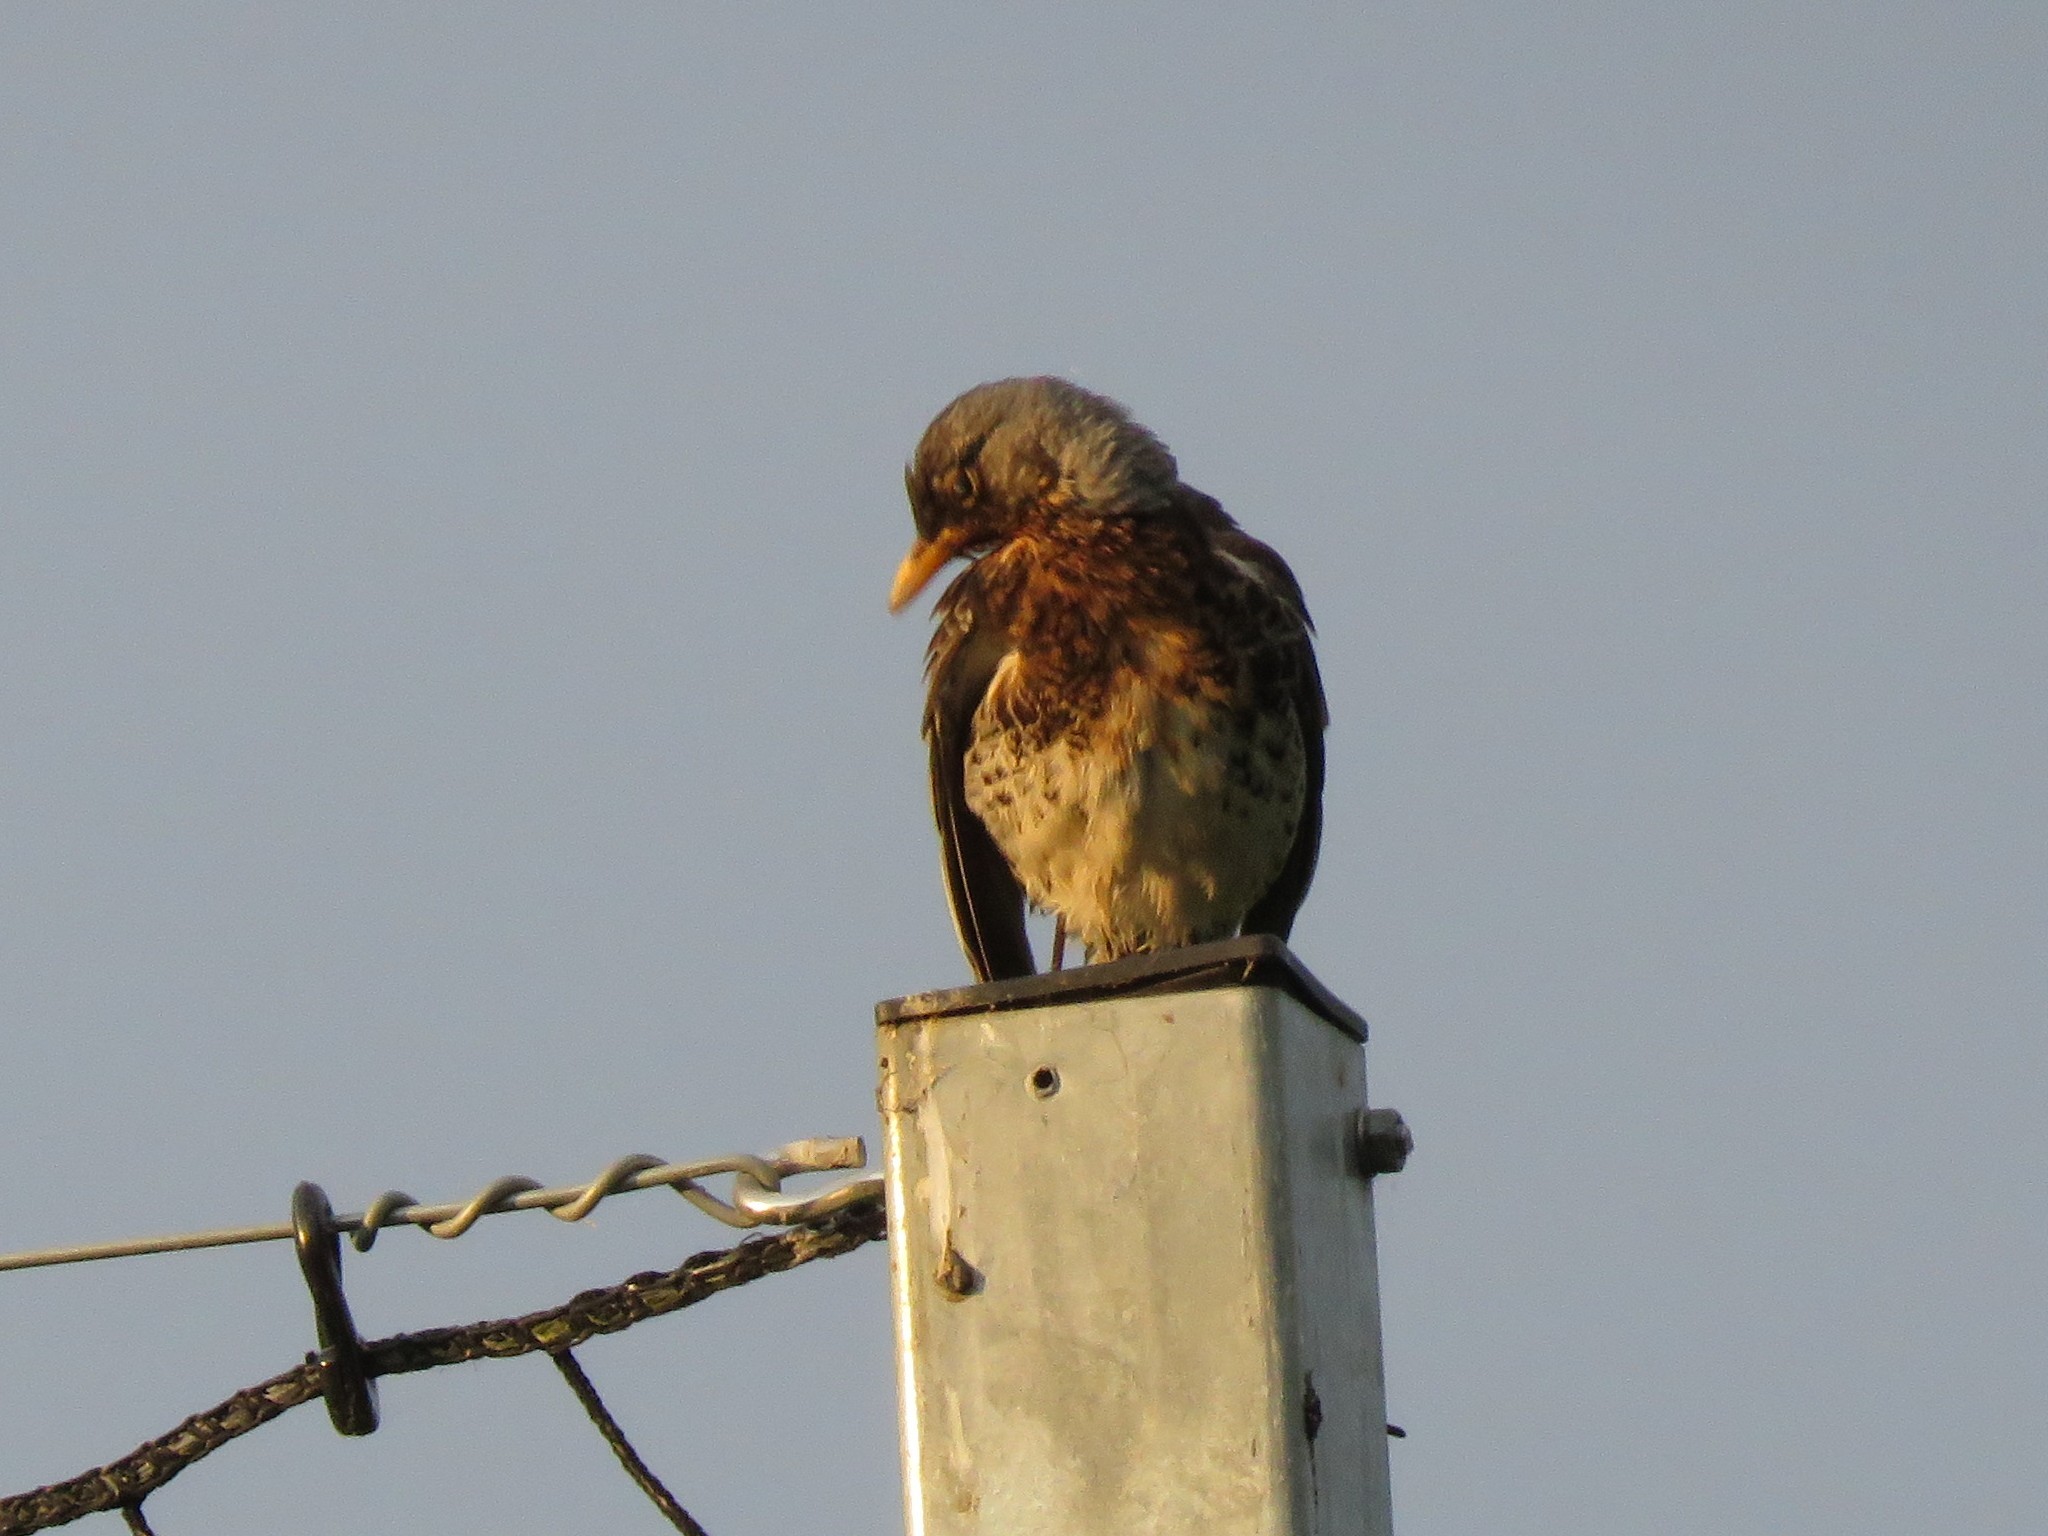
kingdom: Animalia
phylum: Chordata
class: Aves
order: Passeriformes
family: Turdidae
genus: Turdus
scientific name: Turdus pilaris
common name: Fieldfare
